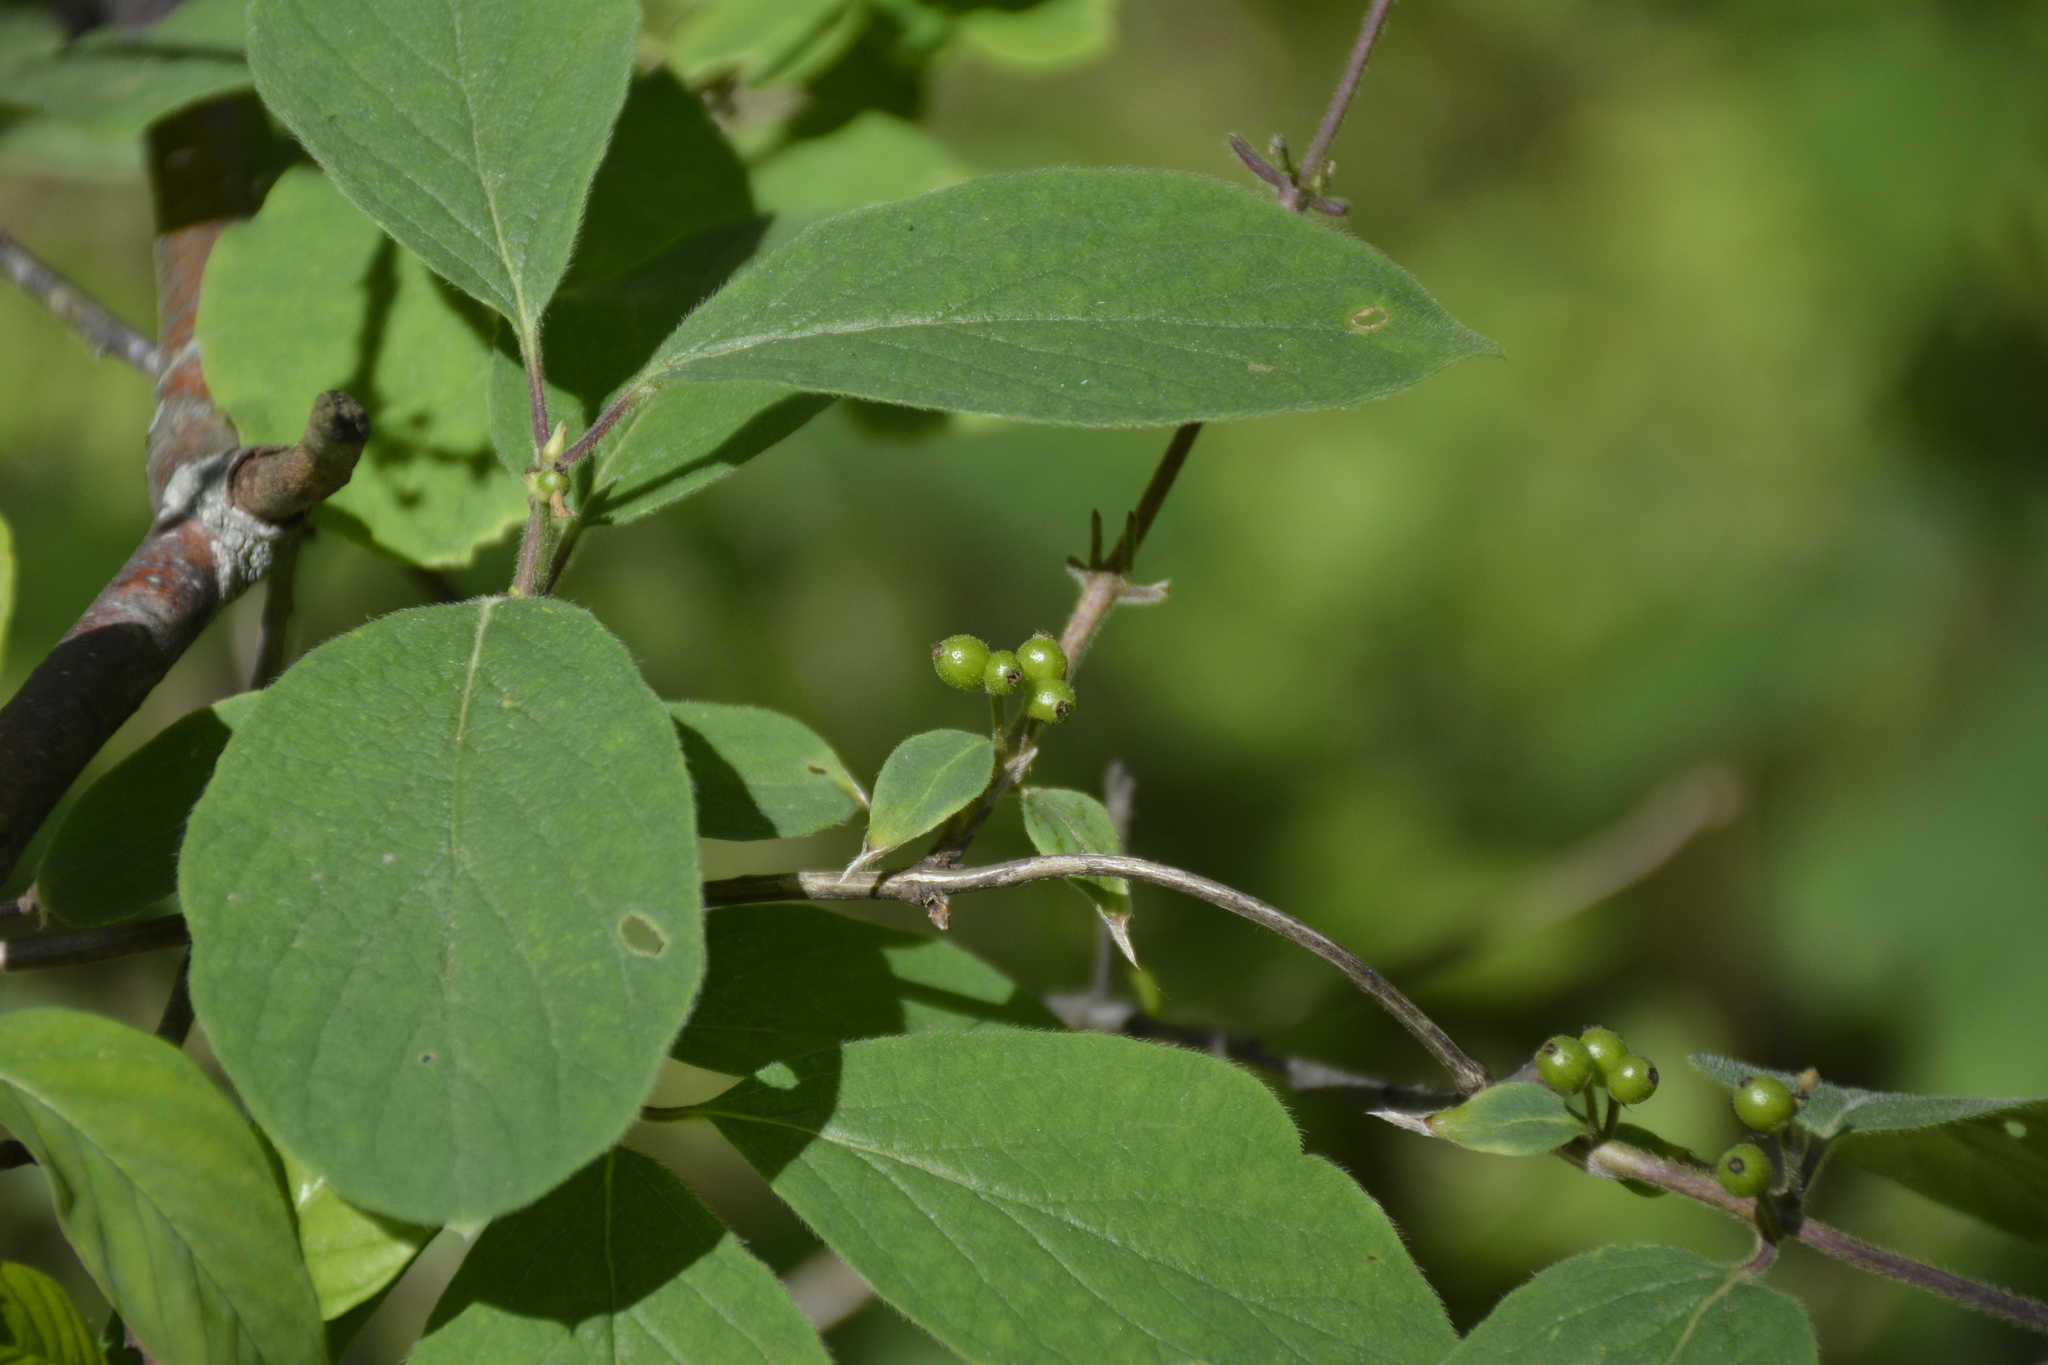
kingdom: Plantae
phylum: Tracheophyta
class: Magnoliopsida
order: Dipsacales
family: Caprifoliaceae
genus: Lonicera
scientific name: Lonicera xylosteum
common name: Fly honeysuckle
